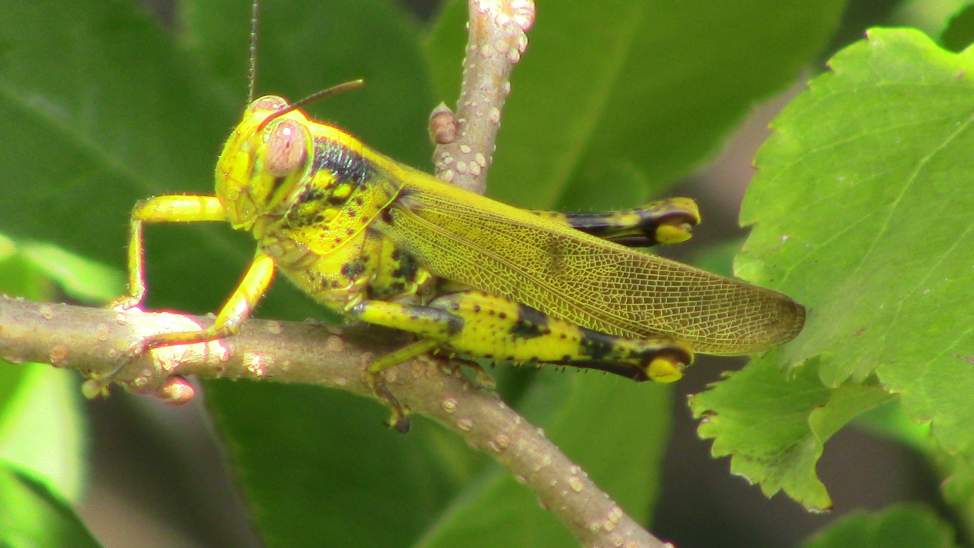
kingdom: Animalia
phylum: Arthropoda
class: Insecta
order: Orthoptera
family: Acrididae
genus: Valanga
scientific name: Valanga nigricornis
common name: Javanese bird grasshopper
